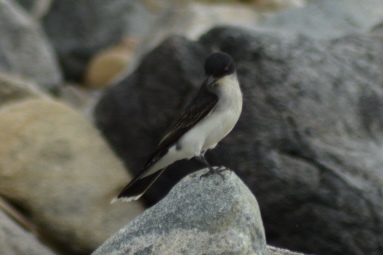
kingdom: Animalia
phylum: Chordata
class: Aves
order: Passeriformes
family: Tyrannidae
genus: Tyrannus
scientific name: Tyrannus tyrannus
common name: Eastern kingbird
